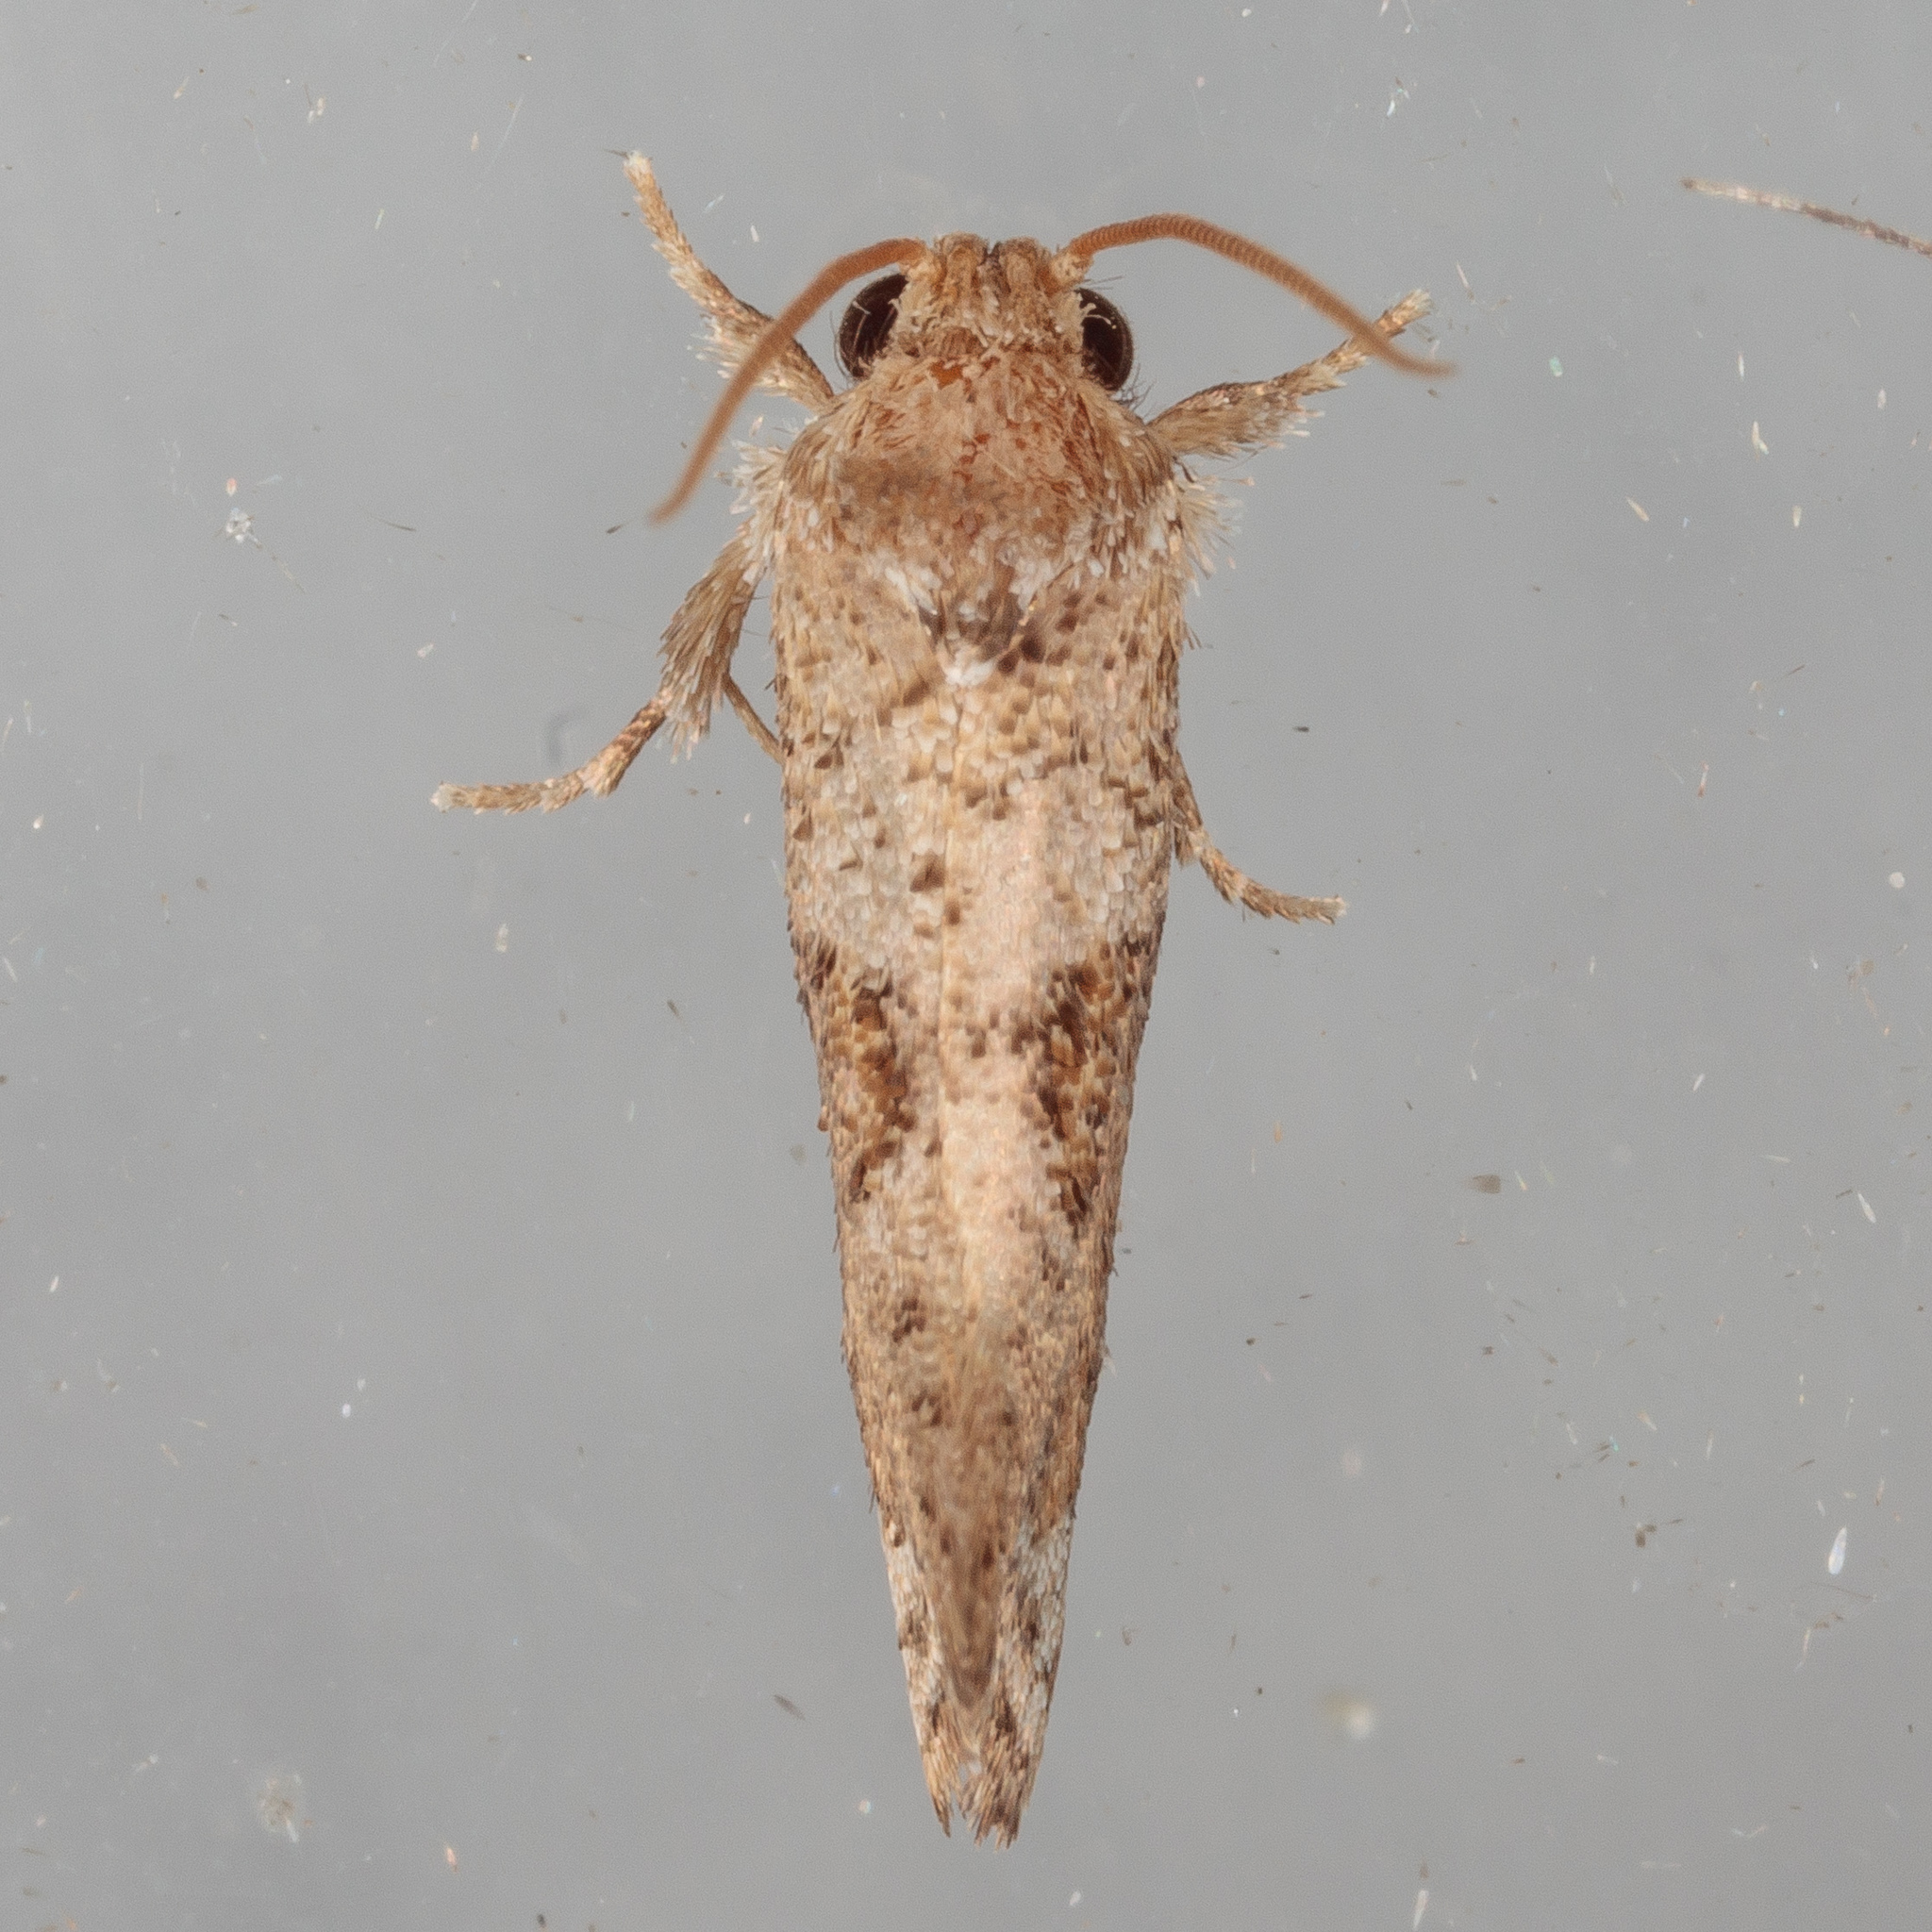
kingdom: Animalia
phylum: Arthropoda
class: Insecta
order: Lepidoptera
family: Tineidae
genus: Acrolophus
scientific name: Acrolophus piger
